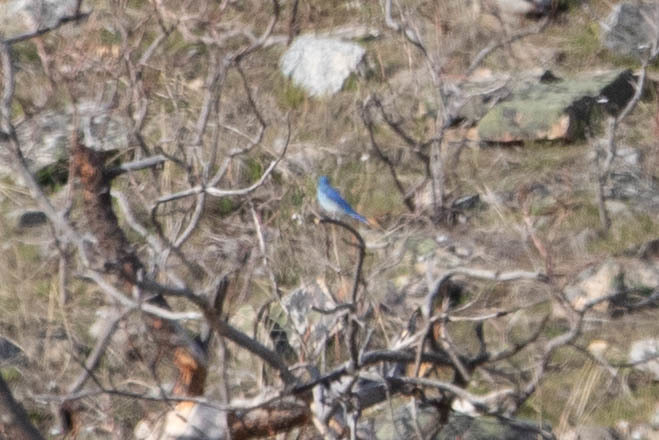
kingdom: Animalia
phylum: Chordata
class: Aves
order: Passeriformes
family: Turdidae
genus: Sialia
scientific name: Sialia currucoides
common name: Mountain bluebird
